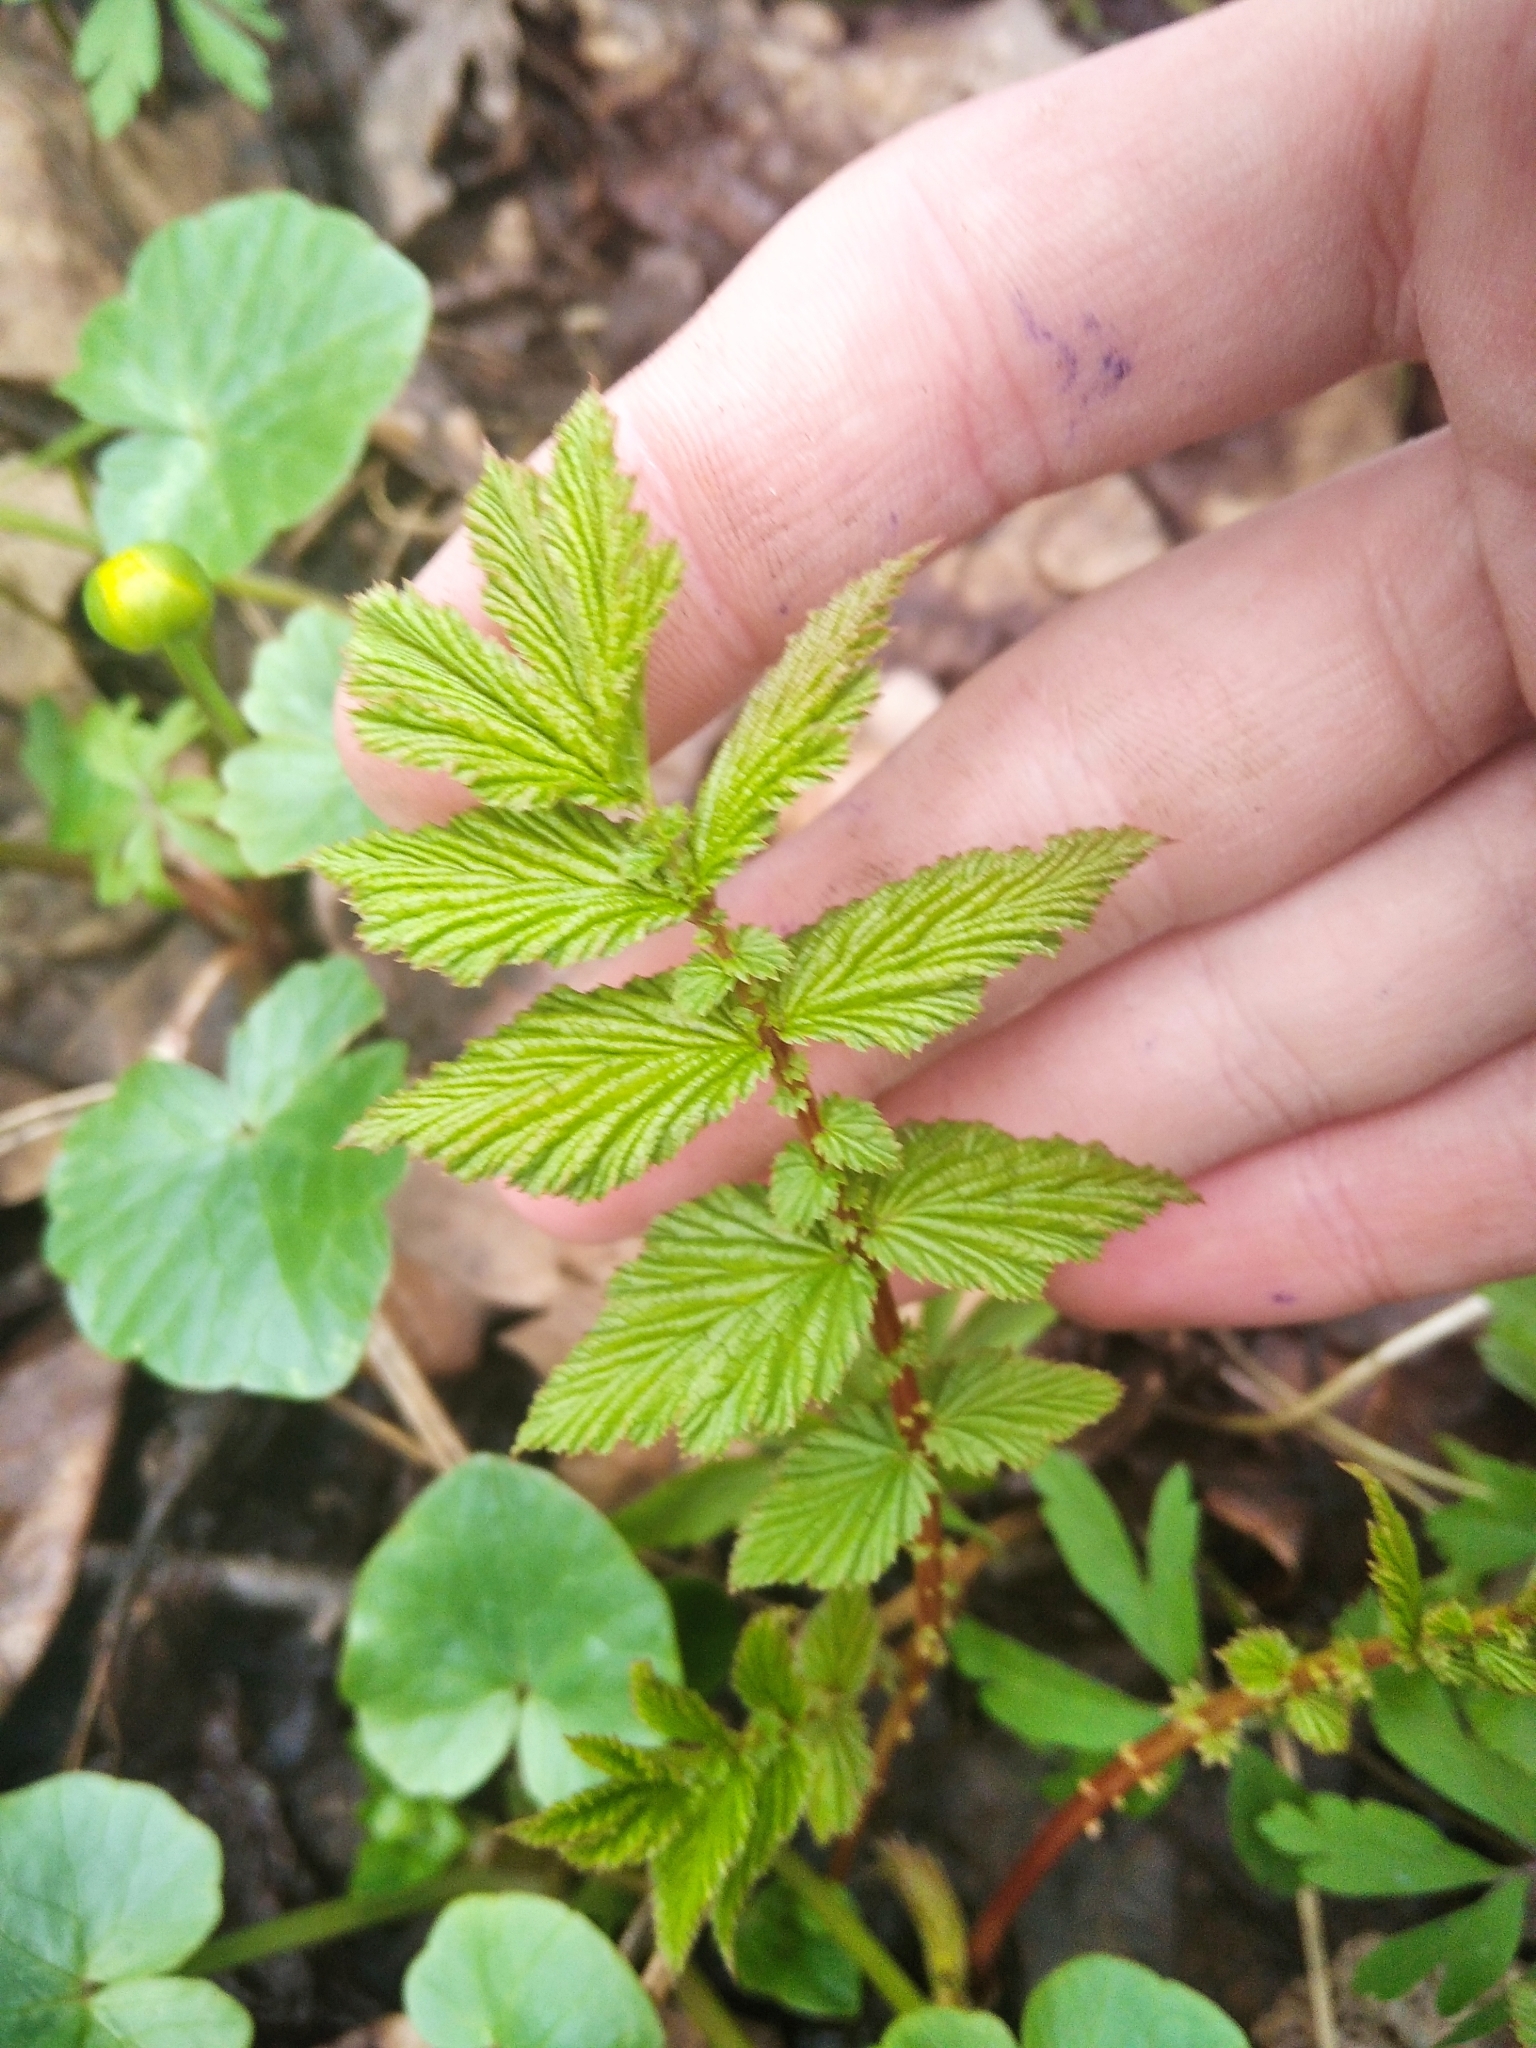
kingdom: Plantae
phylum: Tracheophyta
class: Magnoliopsida
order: Rosales
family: Rosaceae
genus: Filipendula
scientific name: Filipendula ulmaria
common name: Meadowsweet
